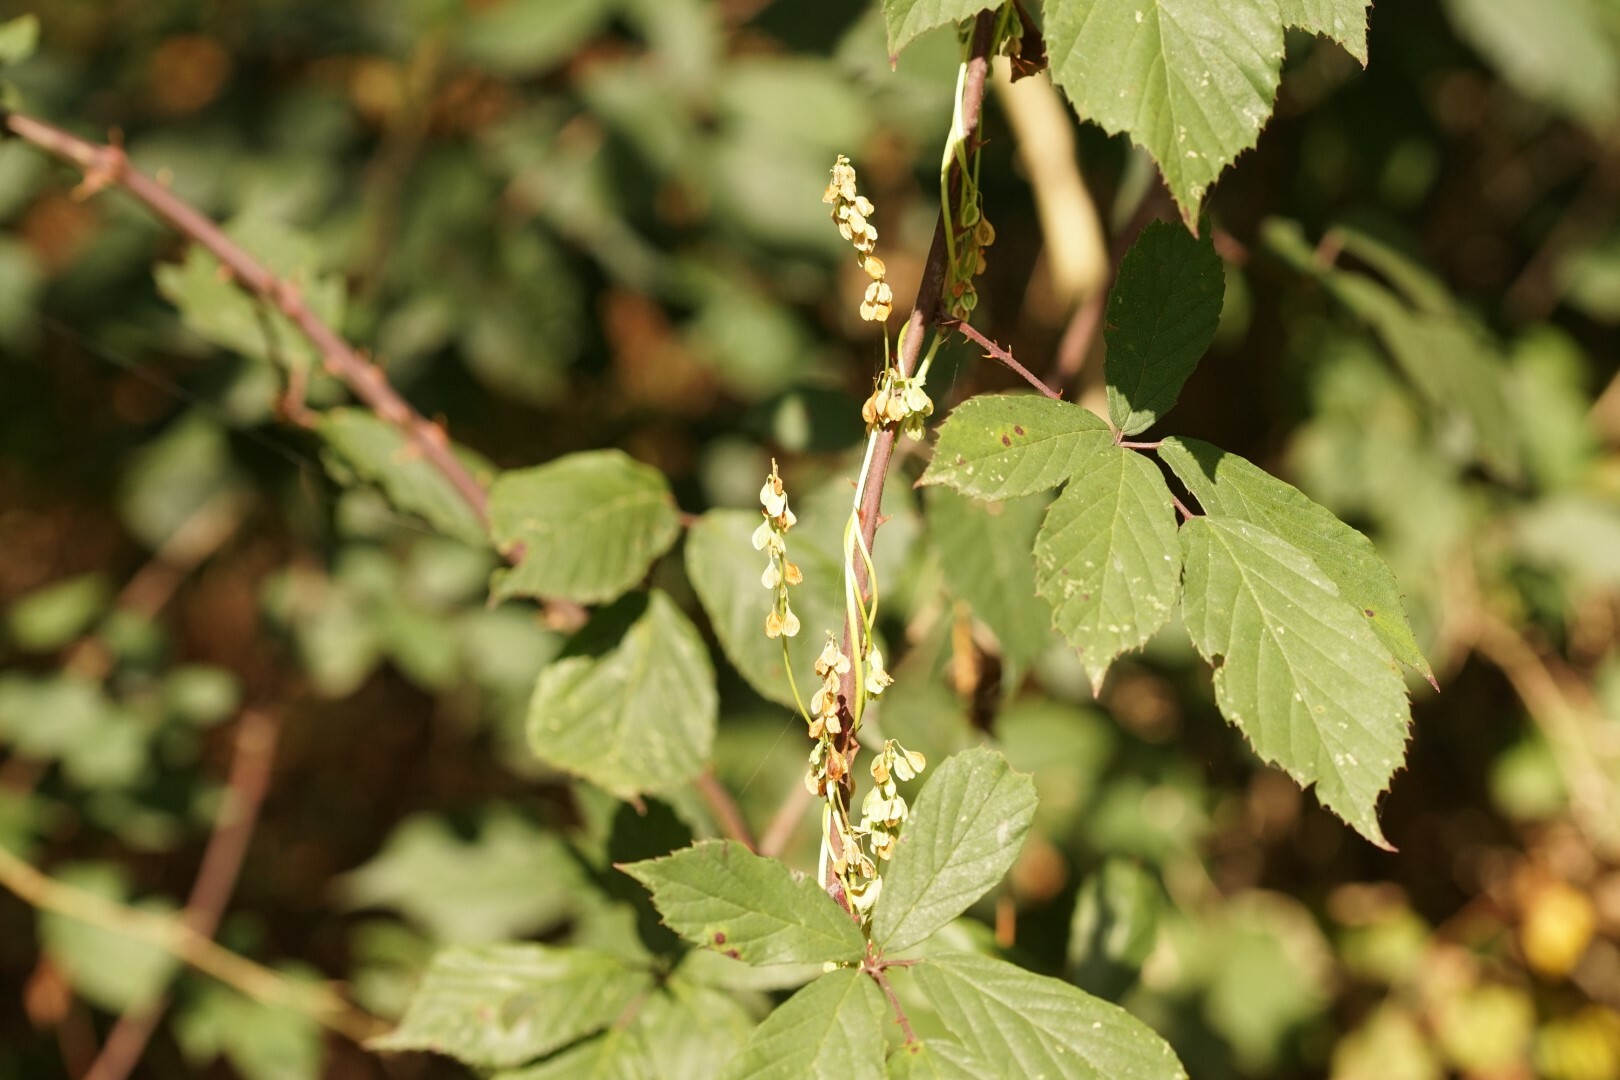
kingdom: Plantae
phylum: Tracheophyta
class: Magnoliopsida
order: Caryophyllales
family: Polygonaceae
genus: Fallopia
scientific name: Fallopia dumetorum
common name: Copse-bindweed
